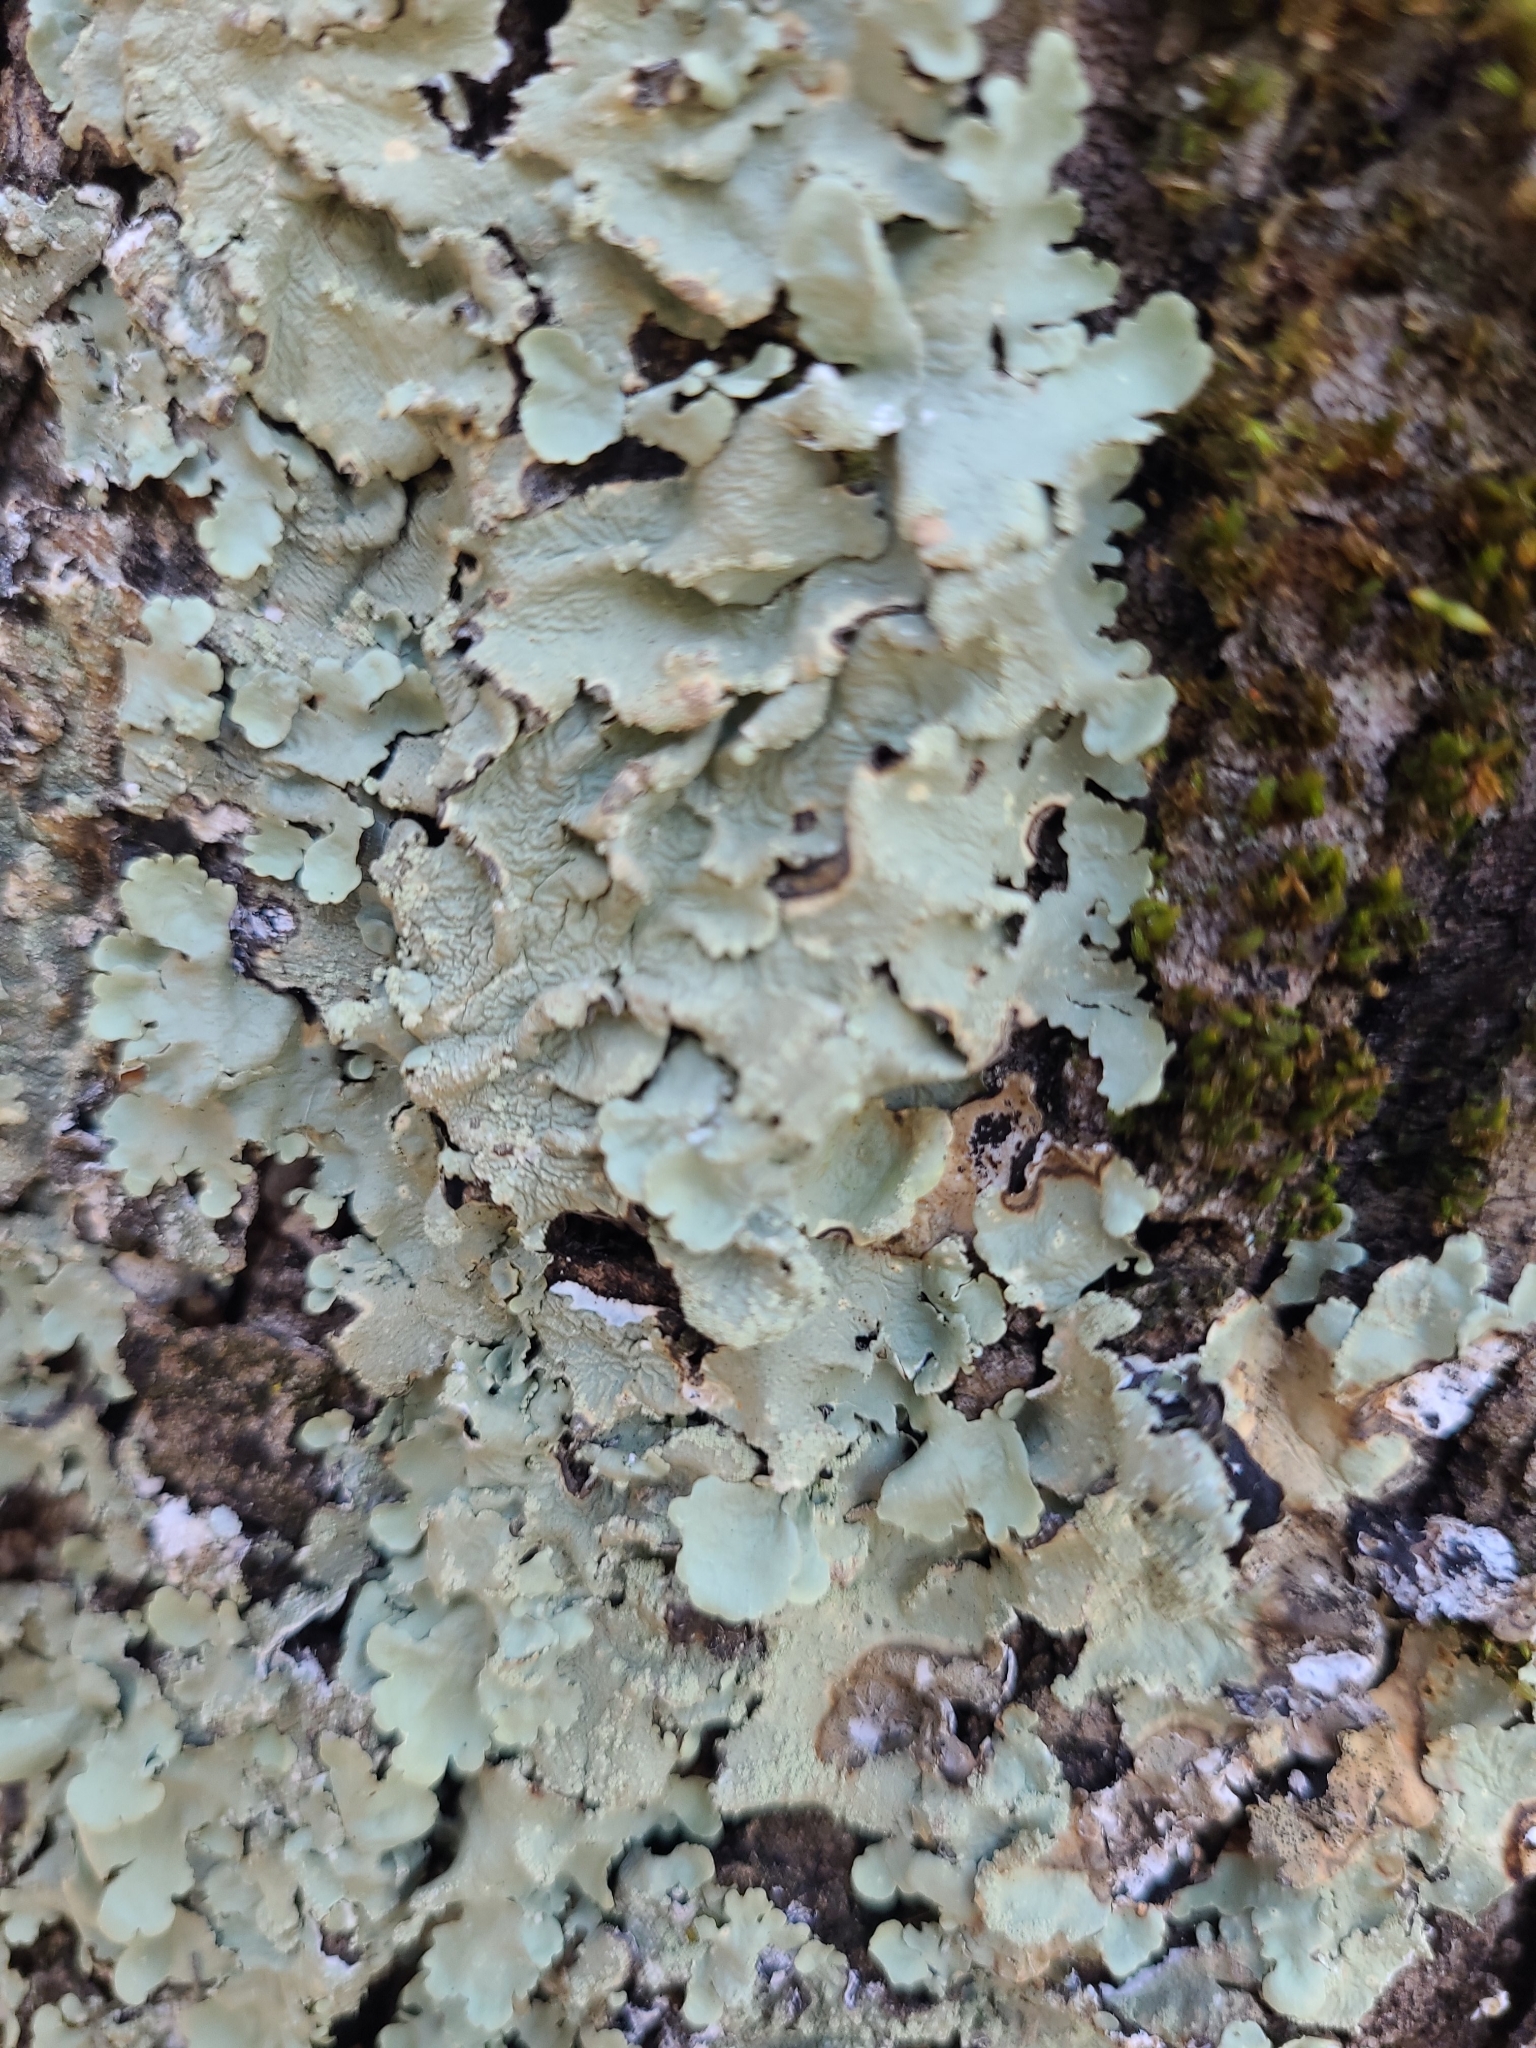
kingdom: Fungi
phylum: Ascomycota
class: Lecanoromycetes
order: Lecanorales
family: Parmeliaceae
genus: Flavoparmelia
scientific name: Flavoparmelia caperata
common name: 40-mile per hour lichen
